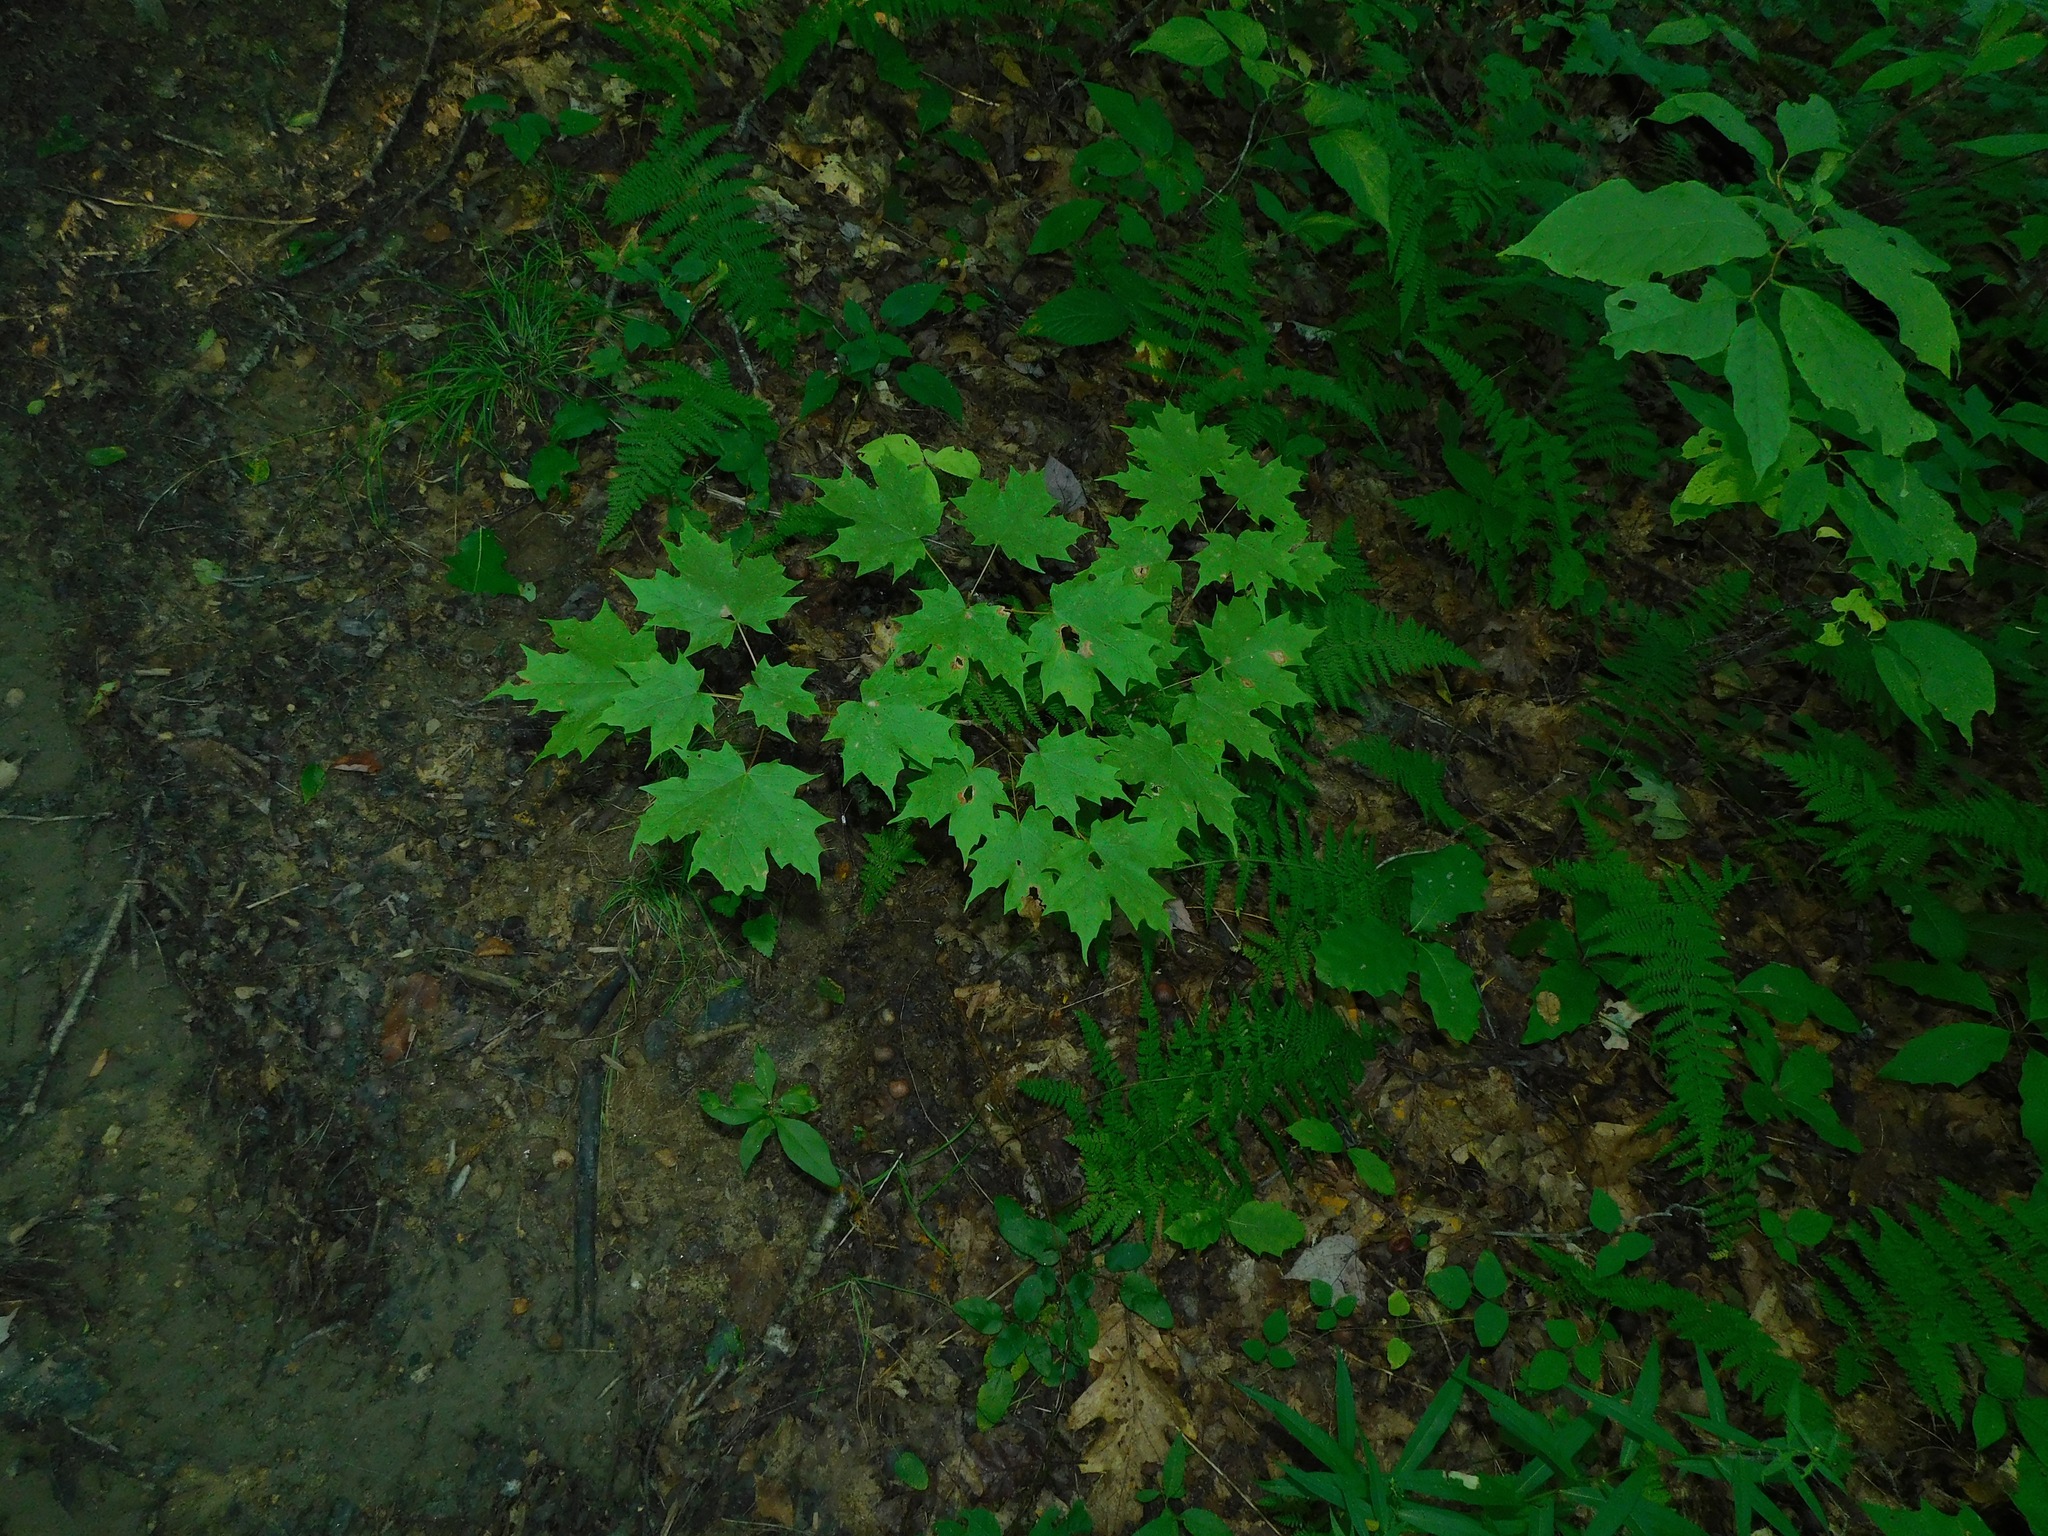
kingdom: Plantae
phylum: Tracheophyta
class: Magnoliopsida
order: Sapindales
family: Sapindaceae
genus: Acer
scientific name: Acer saccharum
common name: Sugar maple
